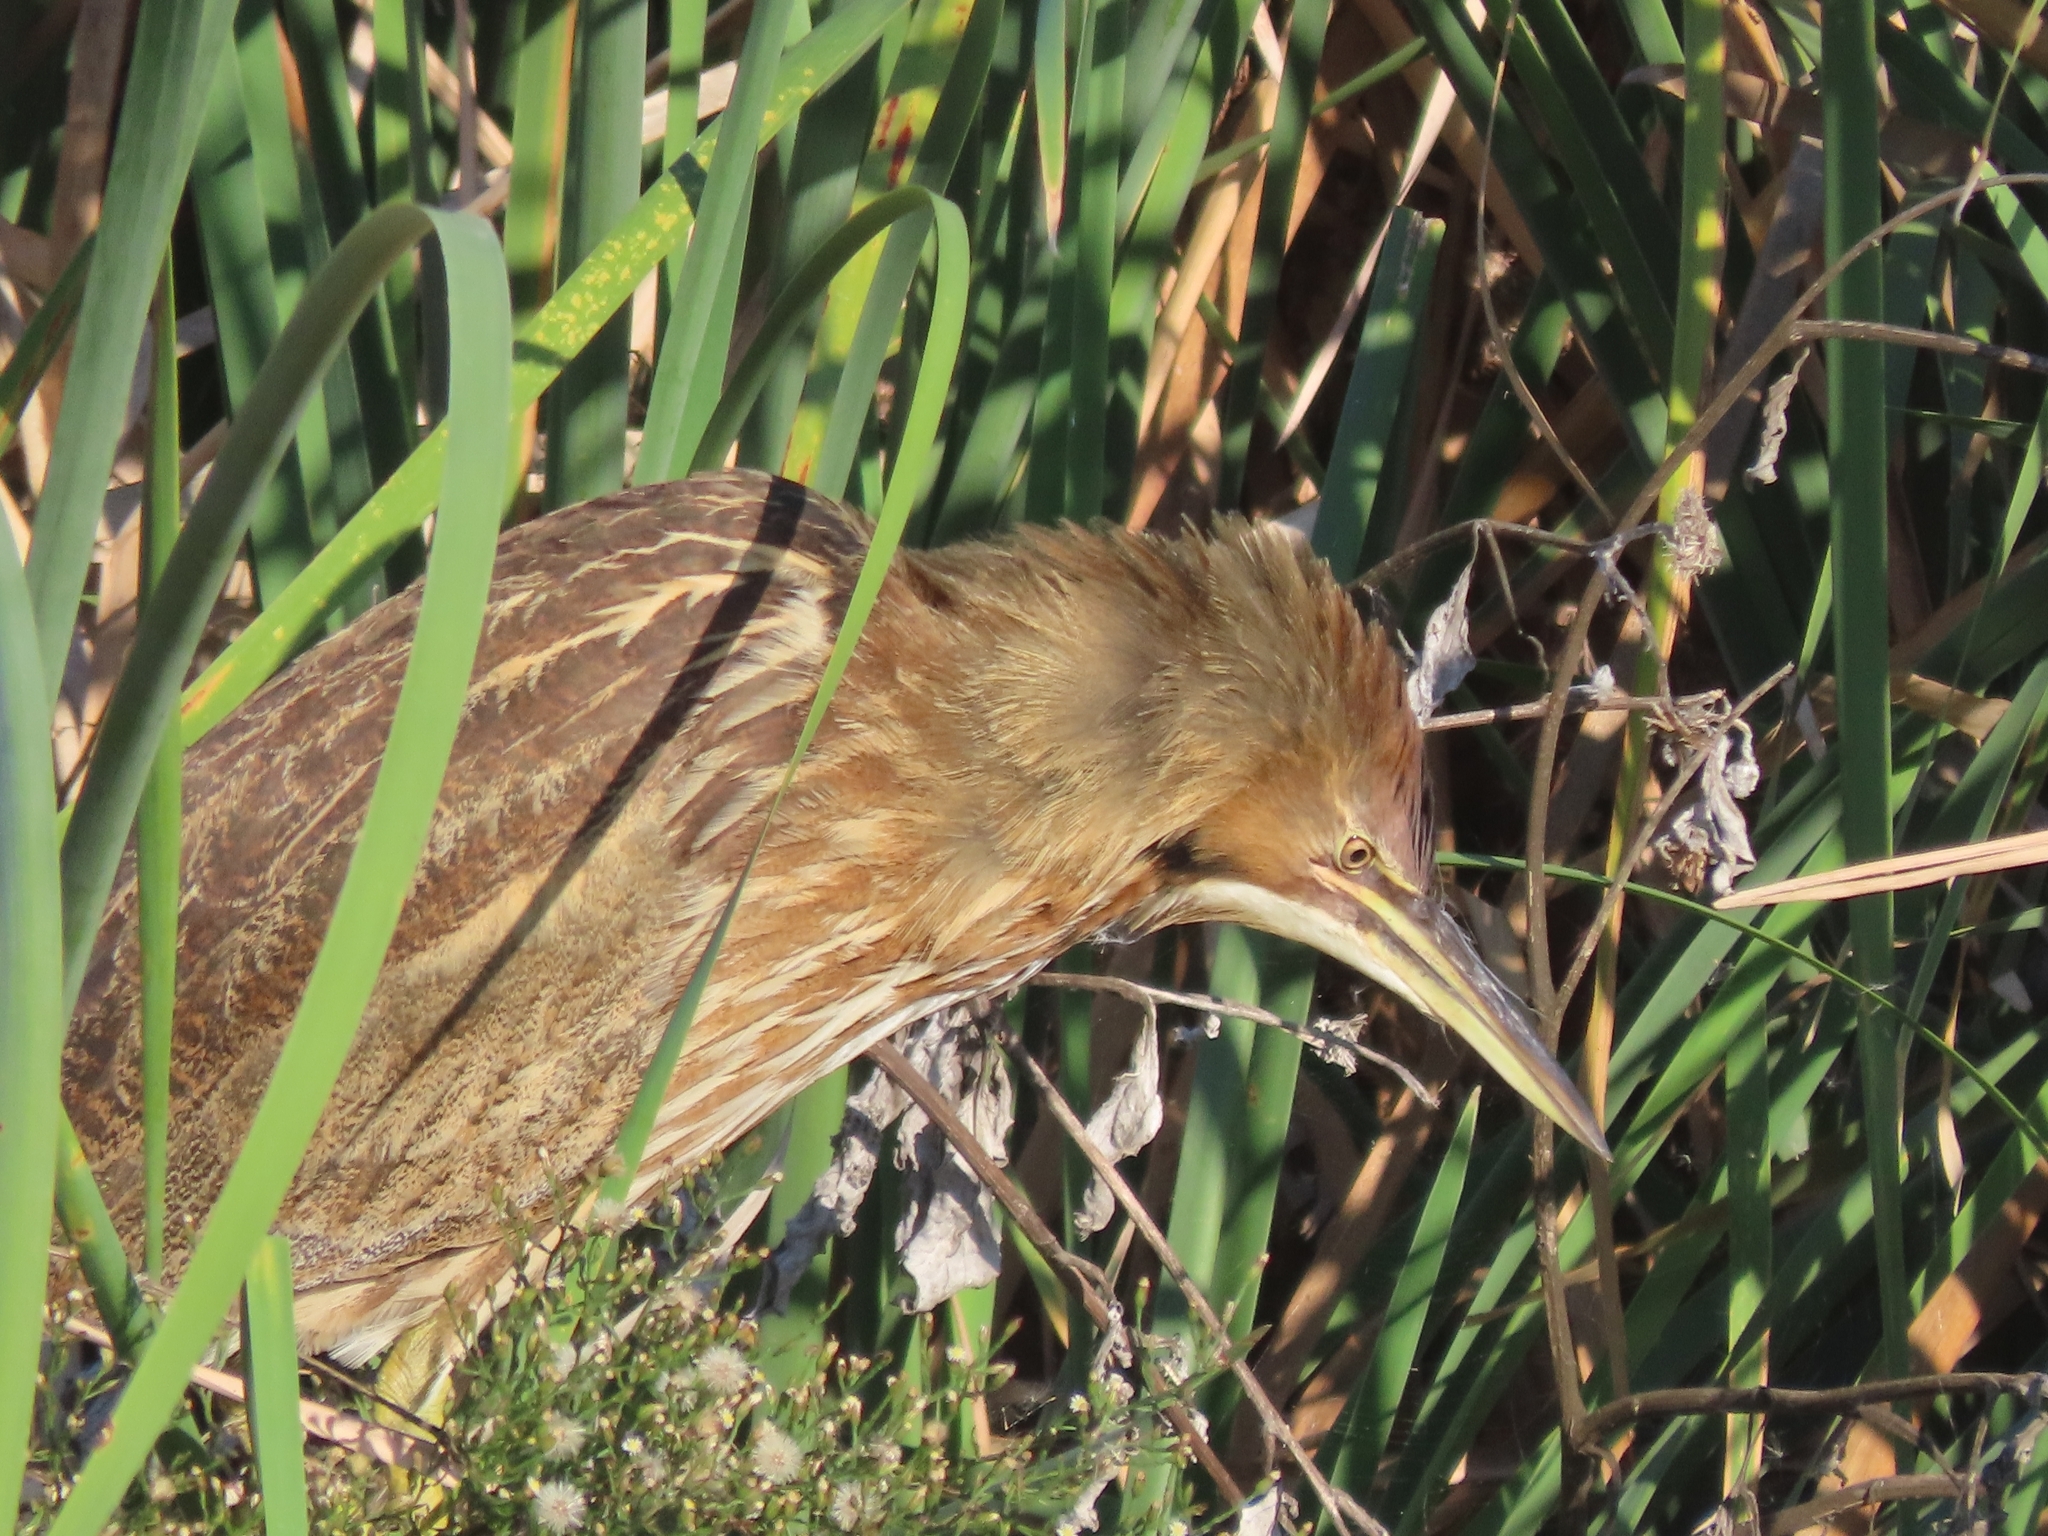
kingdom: Animalia
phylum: Chordata
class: Aves
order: Pelecaniformes
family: Ardeidae
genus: Botaurus
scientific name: Botaurus lentiginosus
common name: American bittern
